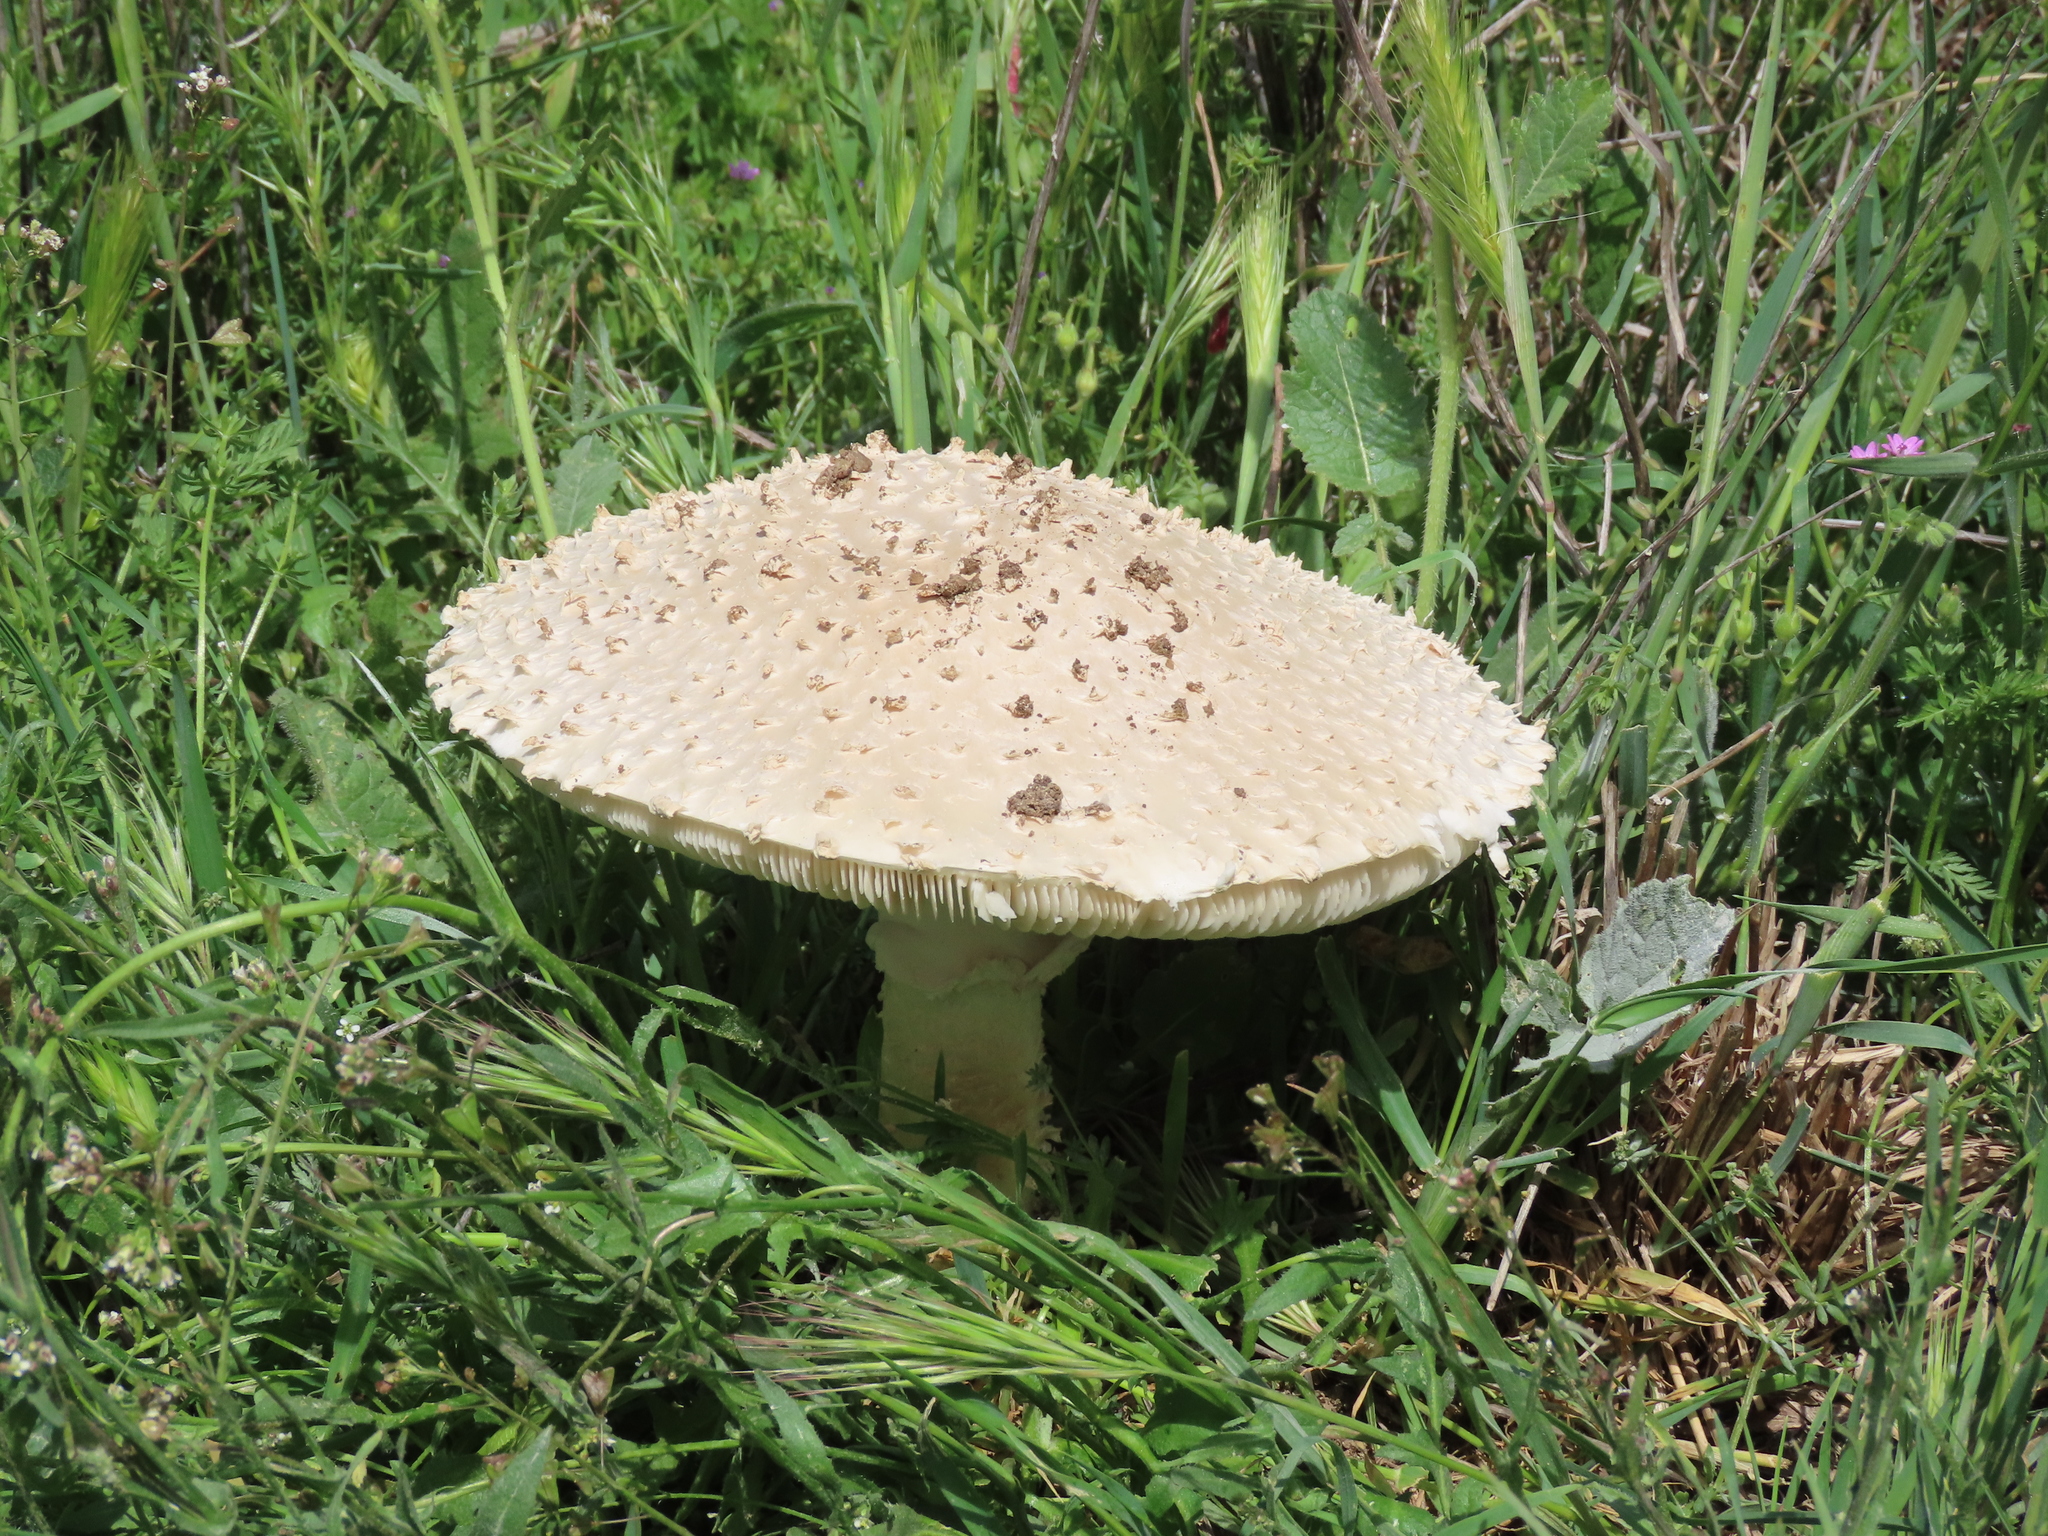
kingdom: Fungi
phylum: Basidiomycota
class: Agaricomycetes
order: Agaricales
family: Amanitaceae
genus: Amanita
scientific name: Amanita vittadinii
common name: Barefoot amanita
